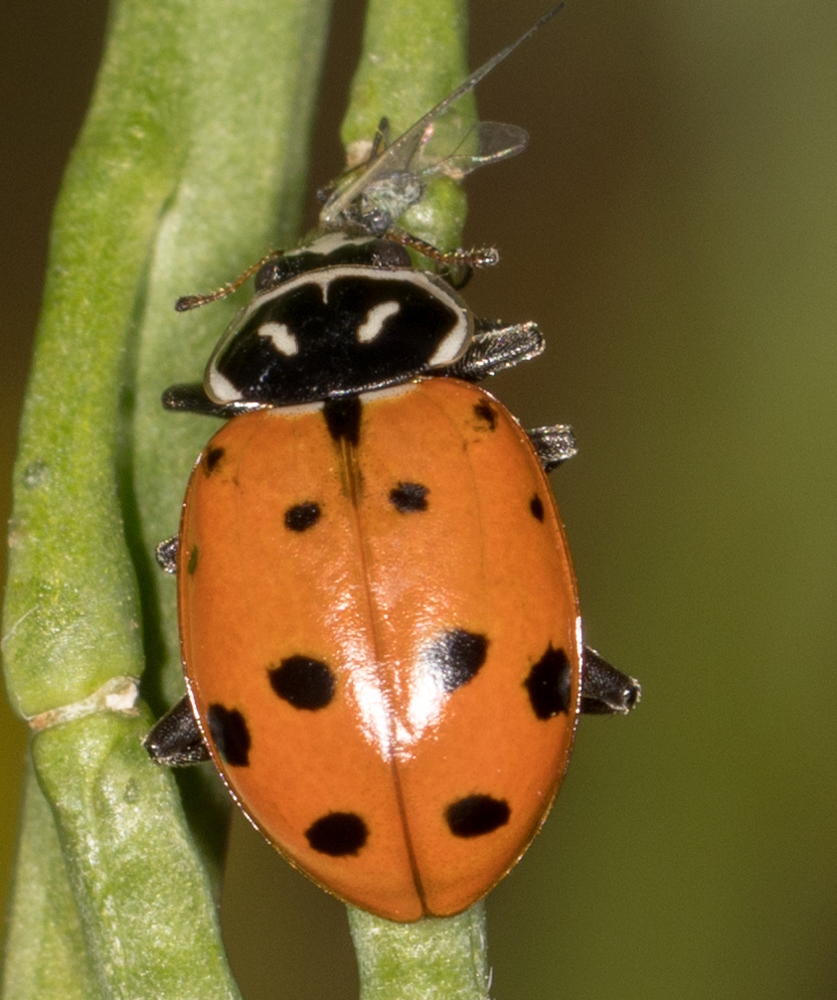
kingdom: Animalia
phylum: Arthropoda
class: Insecta
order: Coleoptera
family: Coccinellidae
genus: Hippodamia
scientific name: Hippodamia convergens
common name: Convergent lady beetle
